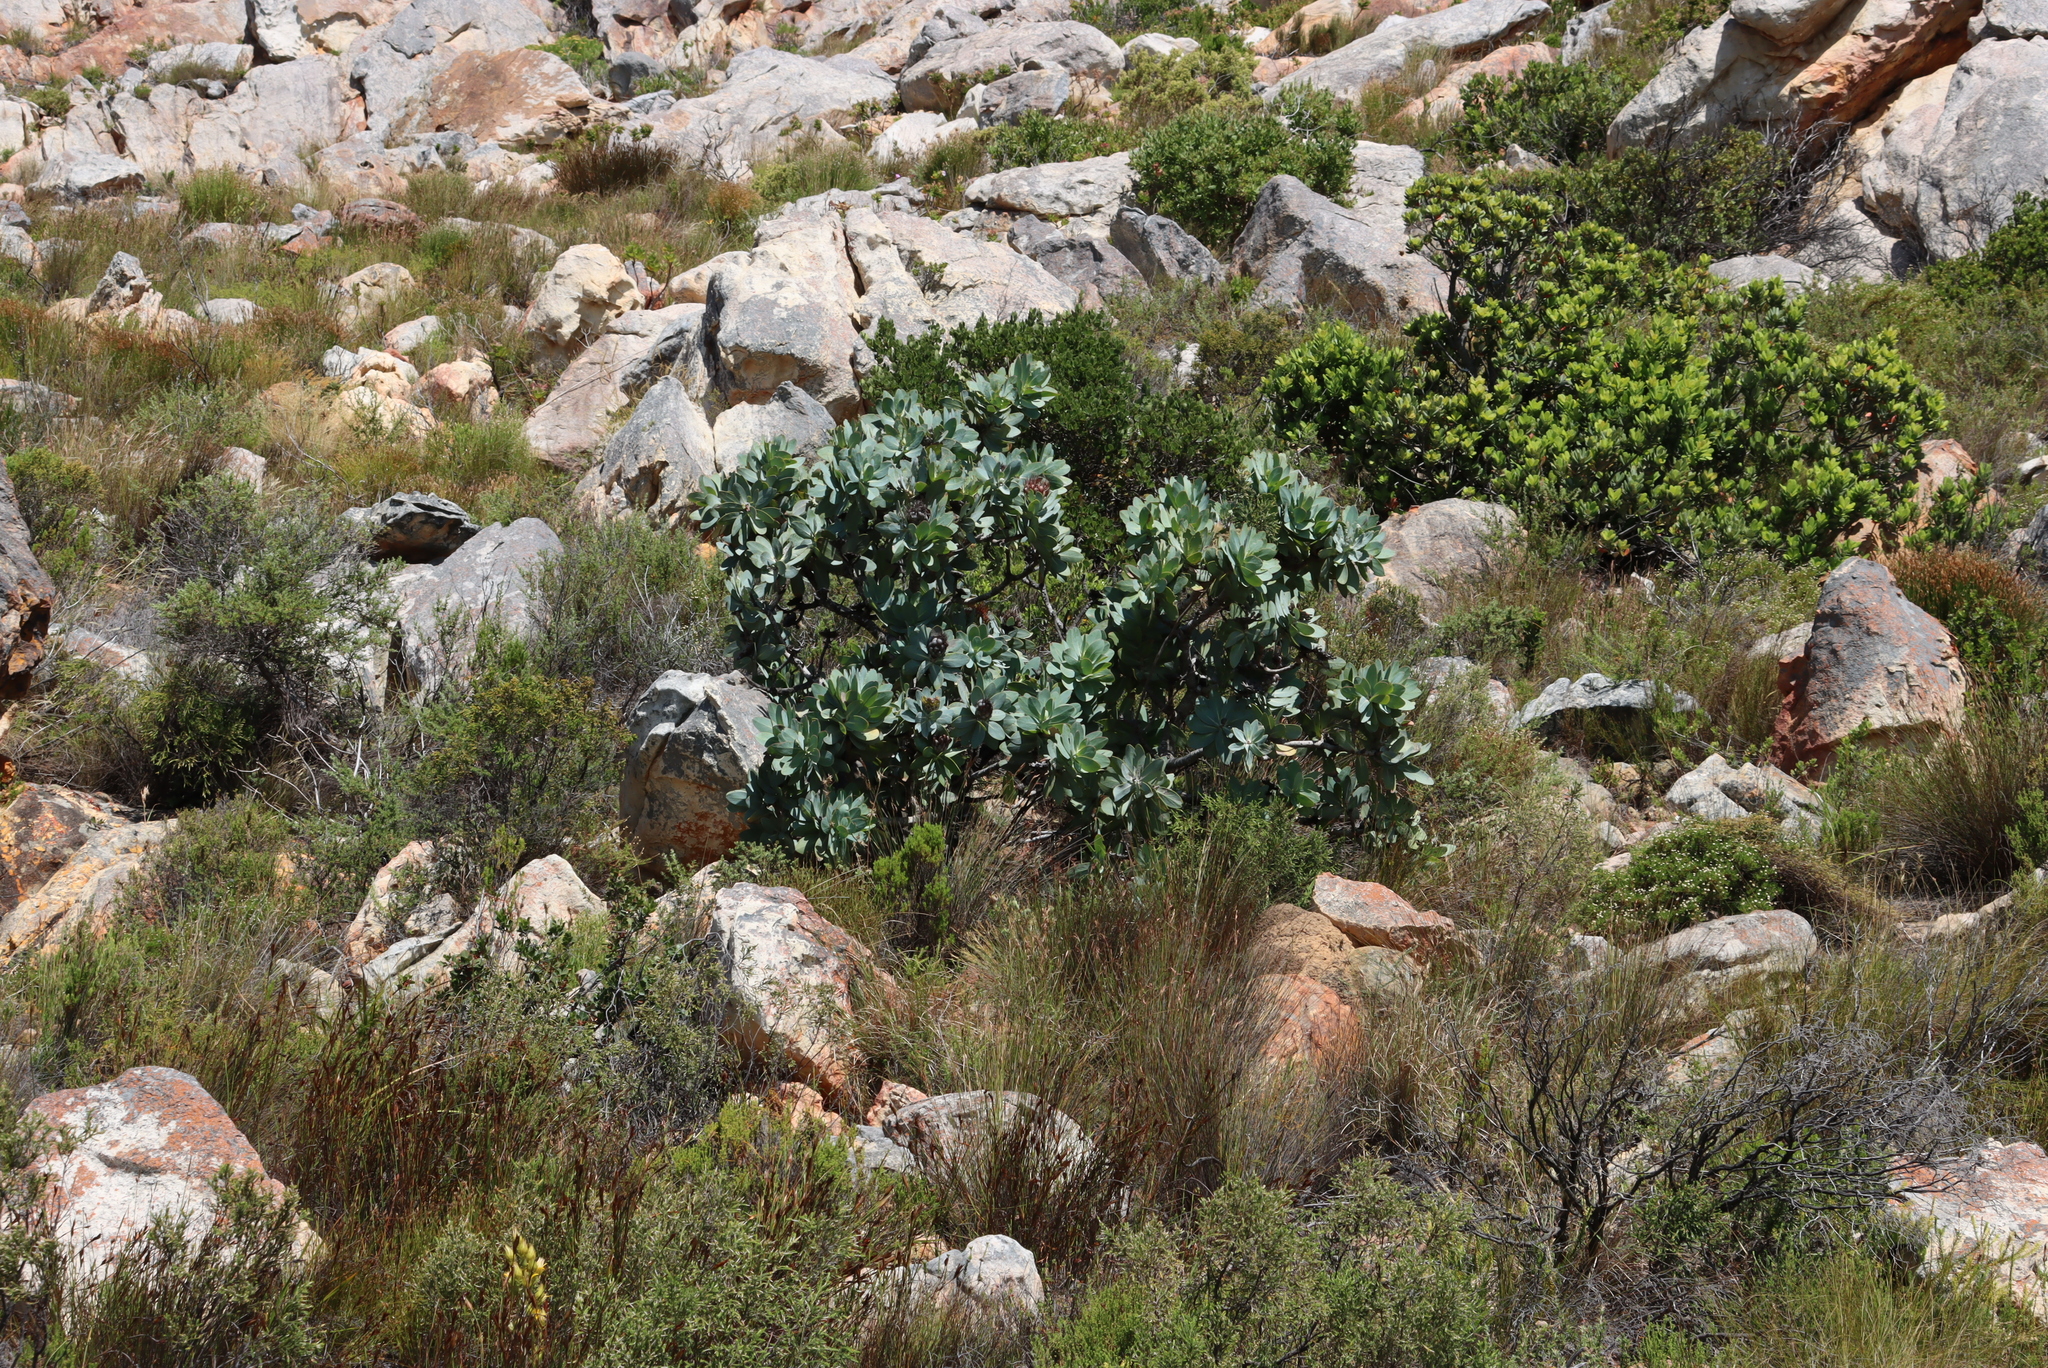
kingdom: Plantae
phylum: Tracheophyta
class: Magnoliopsida
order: Proteales
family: Proteaceae
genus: Protea
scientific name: Protea nitida
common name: Tree protea
